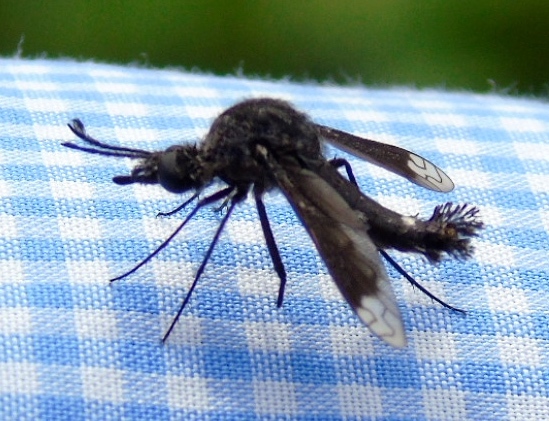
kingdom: Animalia
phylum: Arthropoda
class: Insecta
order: Diptera
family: Bombyliidae
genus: Lepidophora
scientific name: Lepidophora vetusta
